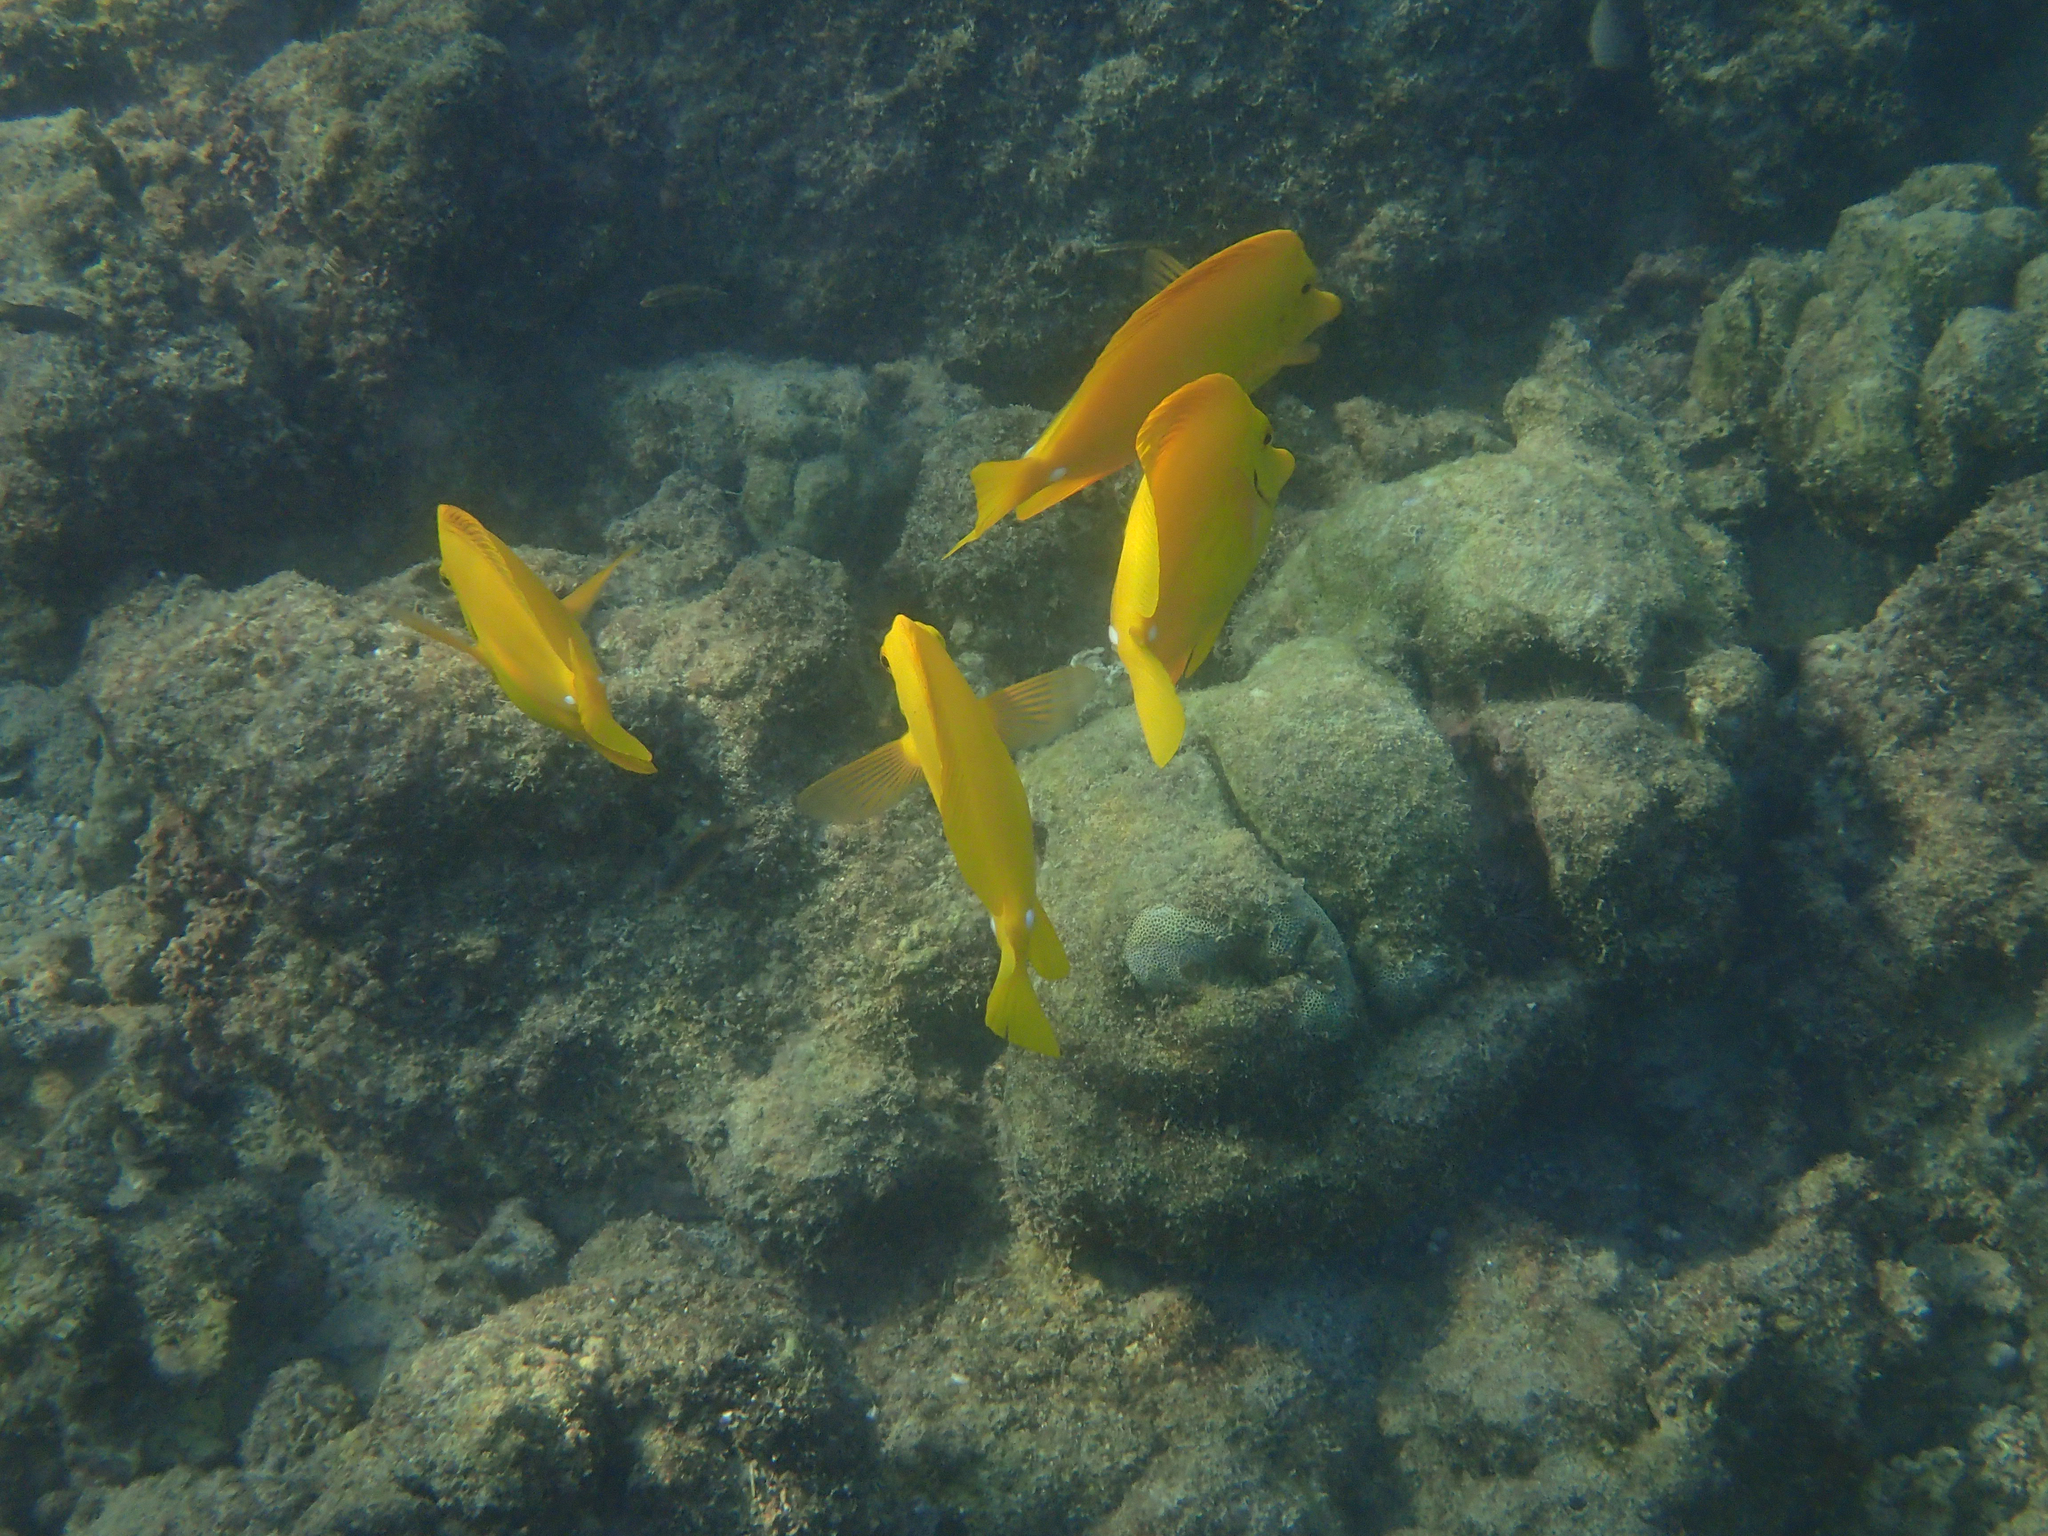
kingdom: Animalia
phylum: Chordata
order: Perciformes
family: Acanthuridae
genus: Zebrasoma
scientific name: Zebrasoma flavescens
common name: Yellow tang
